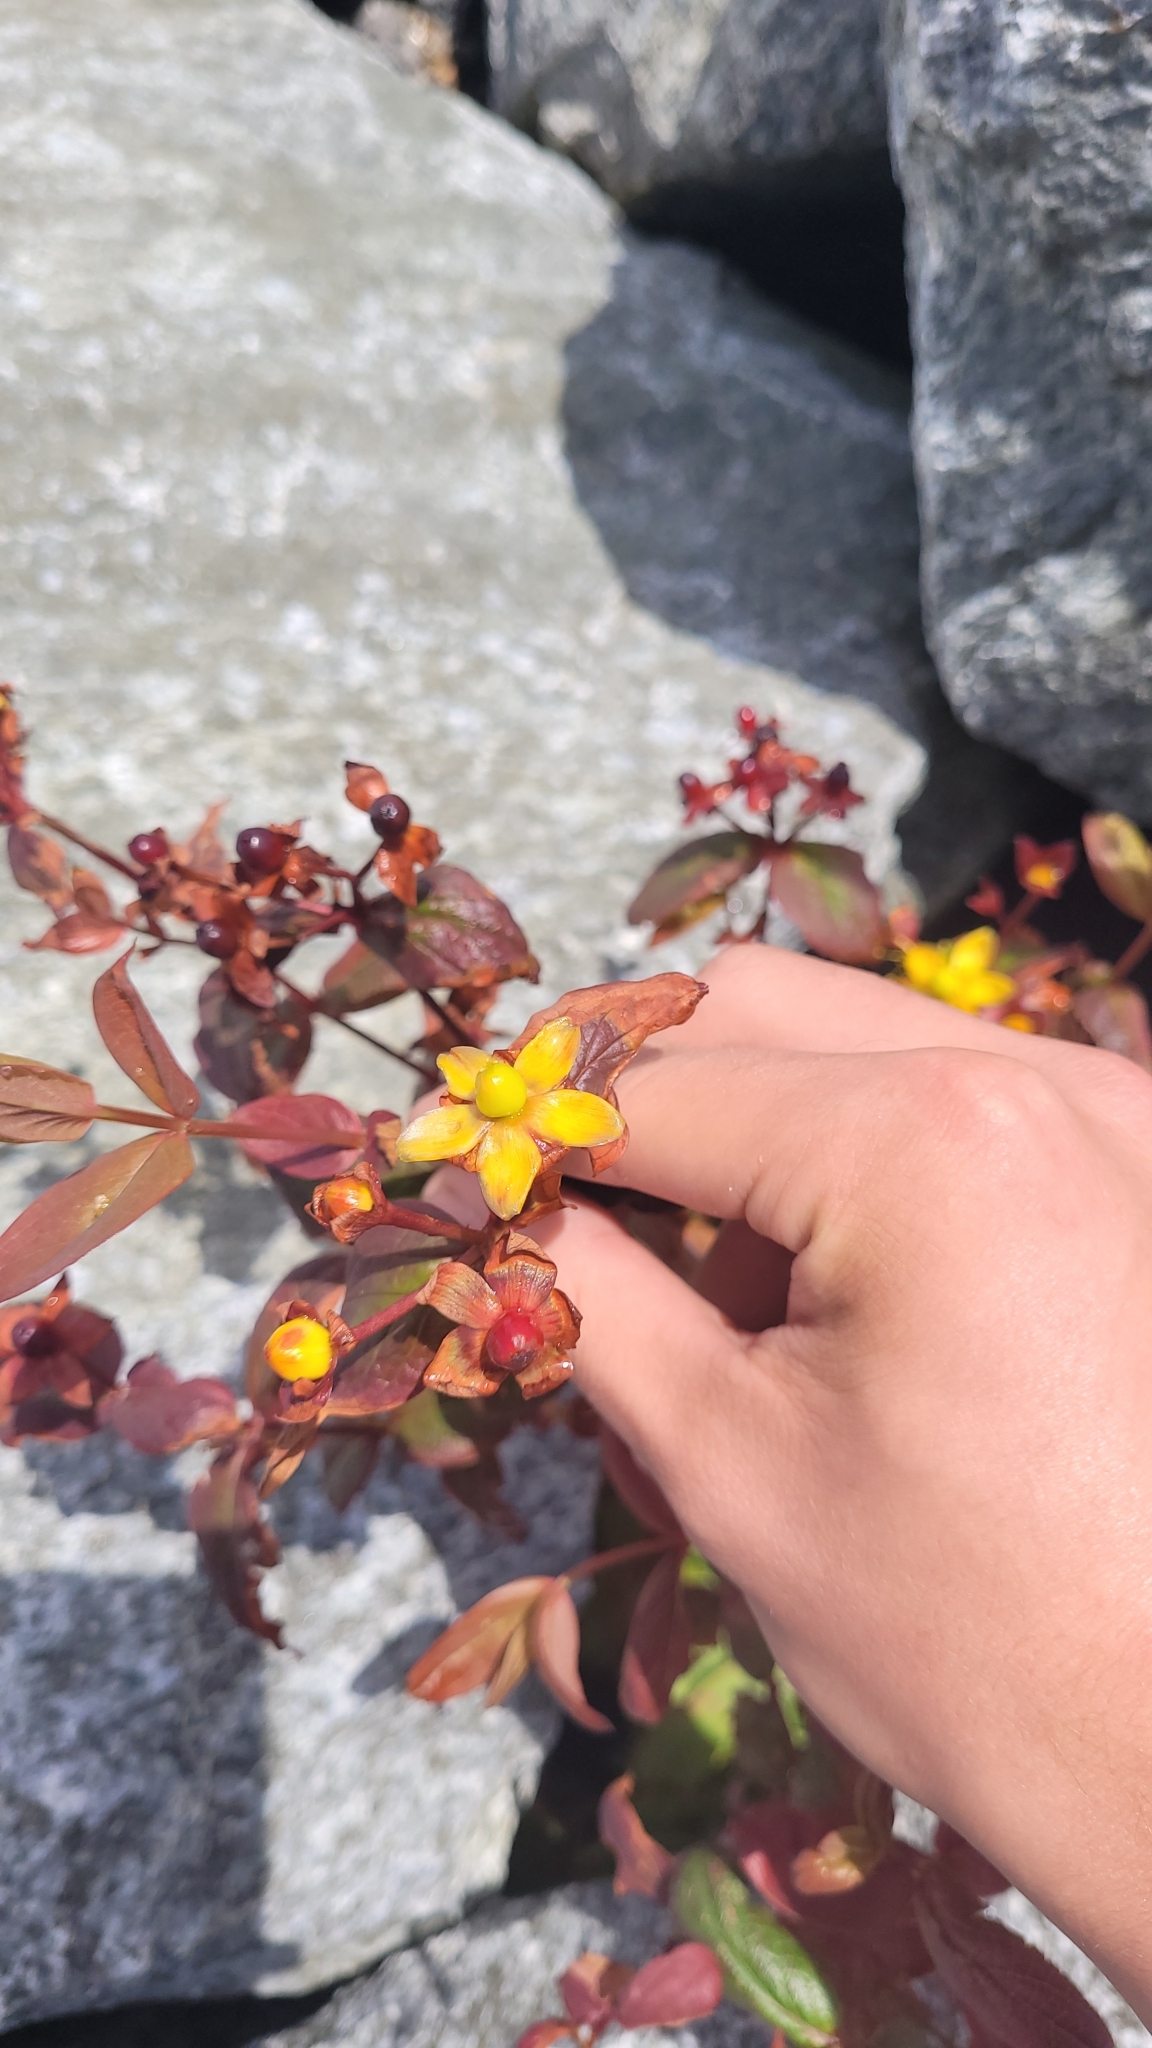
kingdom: Plantae
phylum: Tracheophyta
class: Magnoliopsida
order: Malpighiales
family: Hypericaceae
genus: Hypericum
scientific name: Hypericum androsaemum
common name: Sweet-amber
